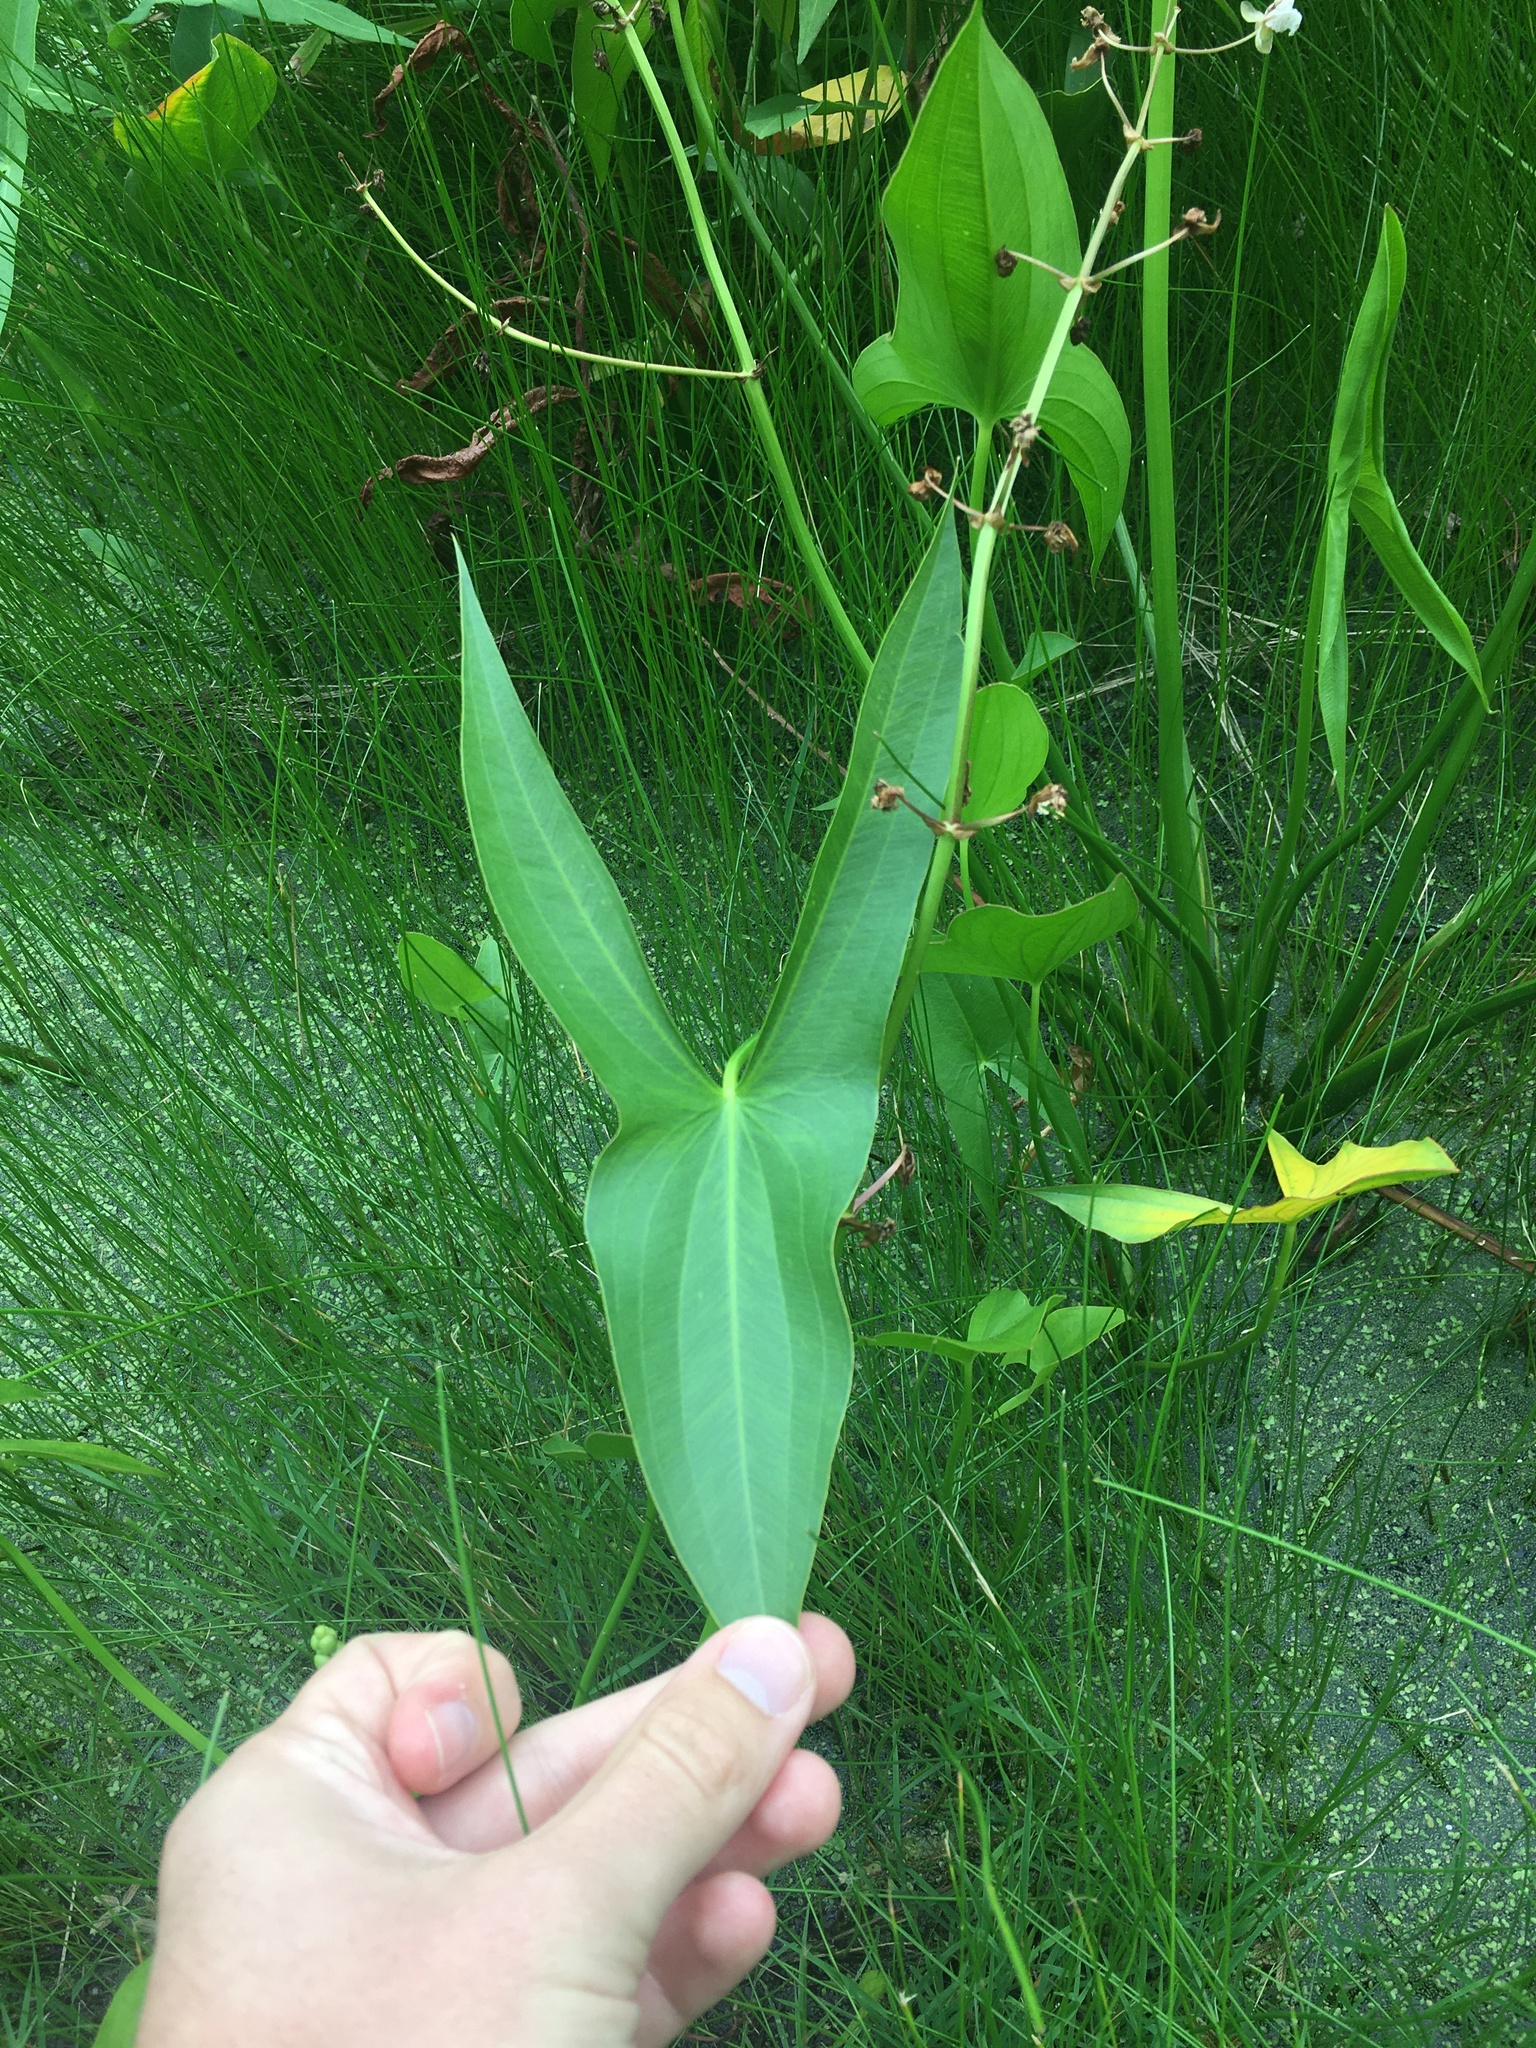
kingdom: Plantae
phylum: Tracheophyta
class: Liliopsida
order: Alismatales
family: Alismataceae
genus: Sagittaria
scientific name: Sagittaria latifolia
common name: Duck-potato
